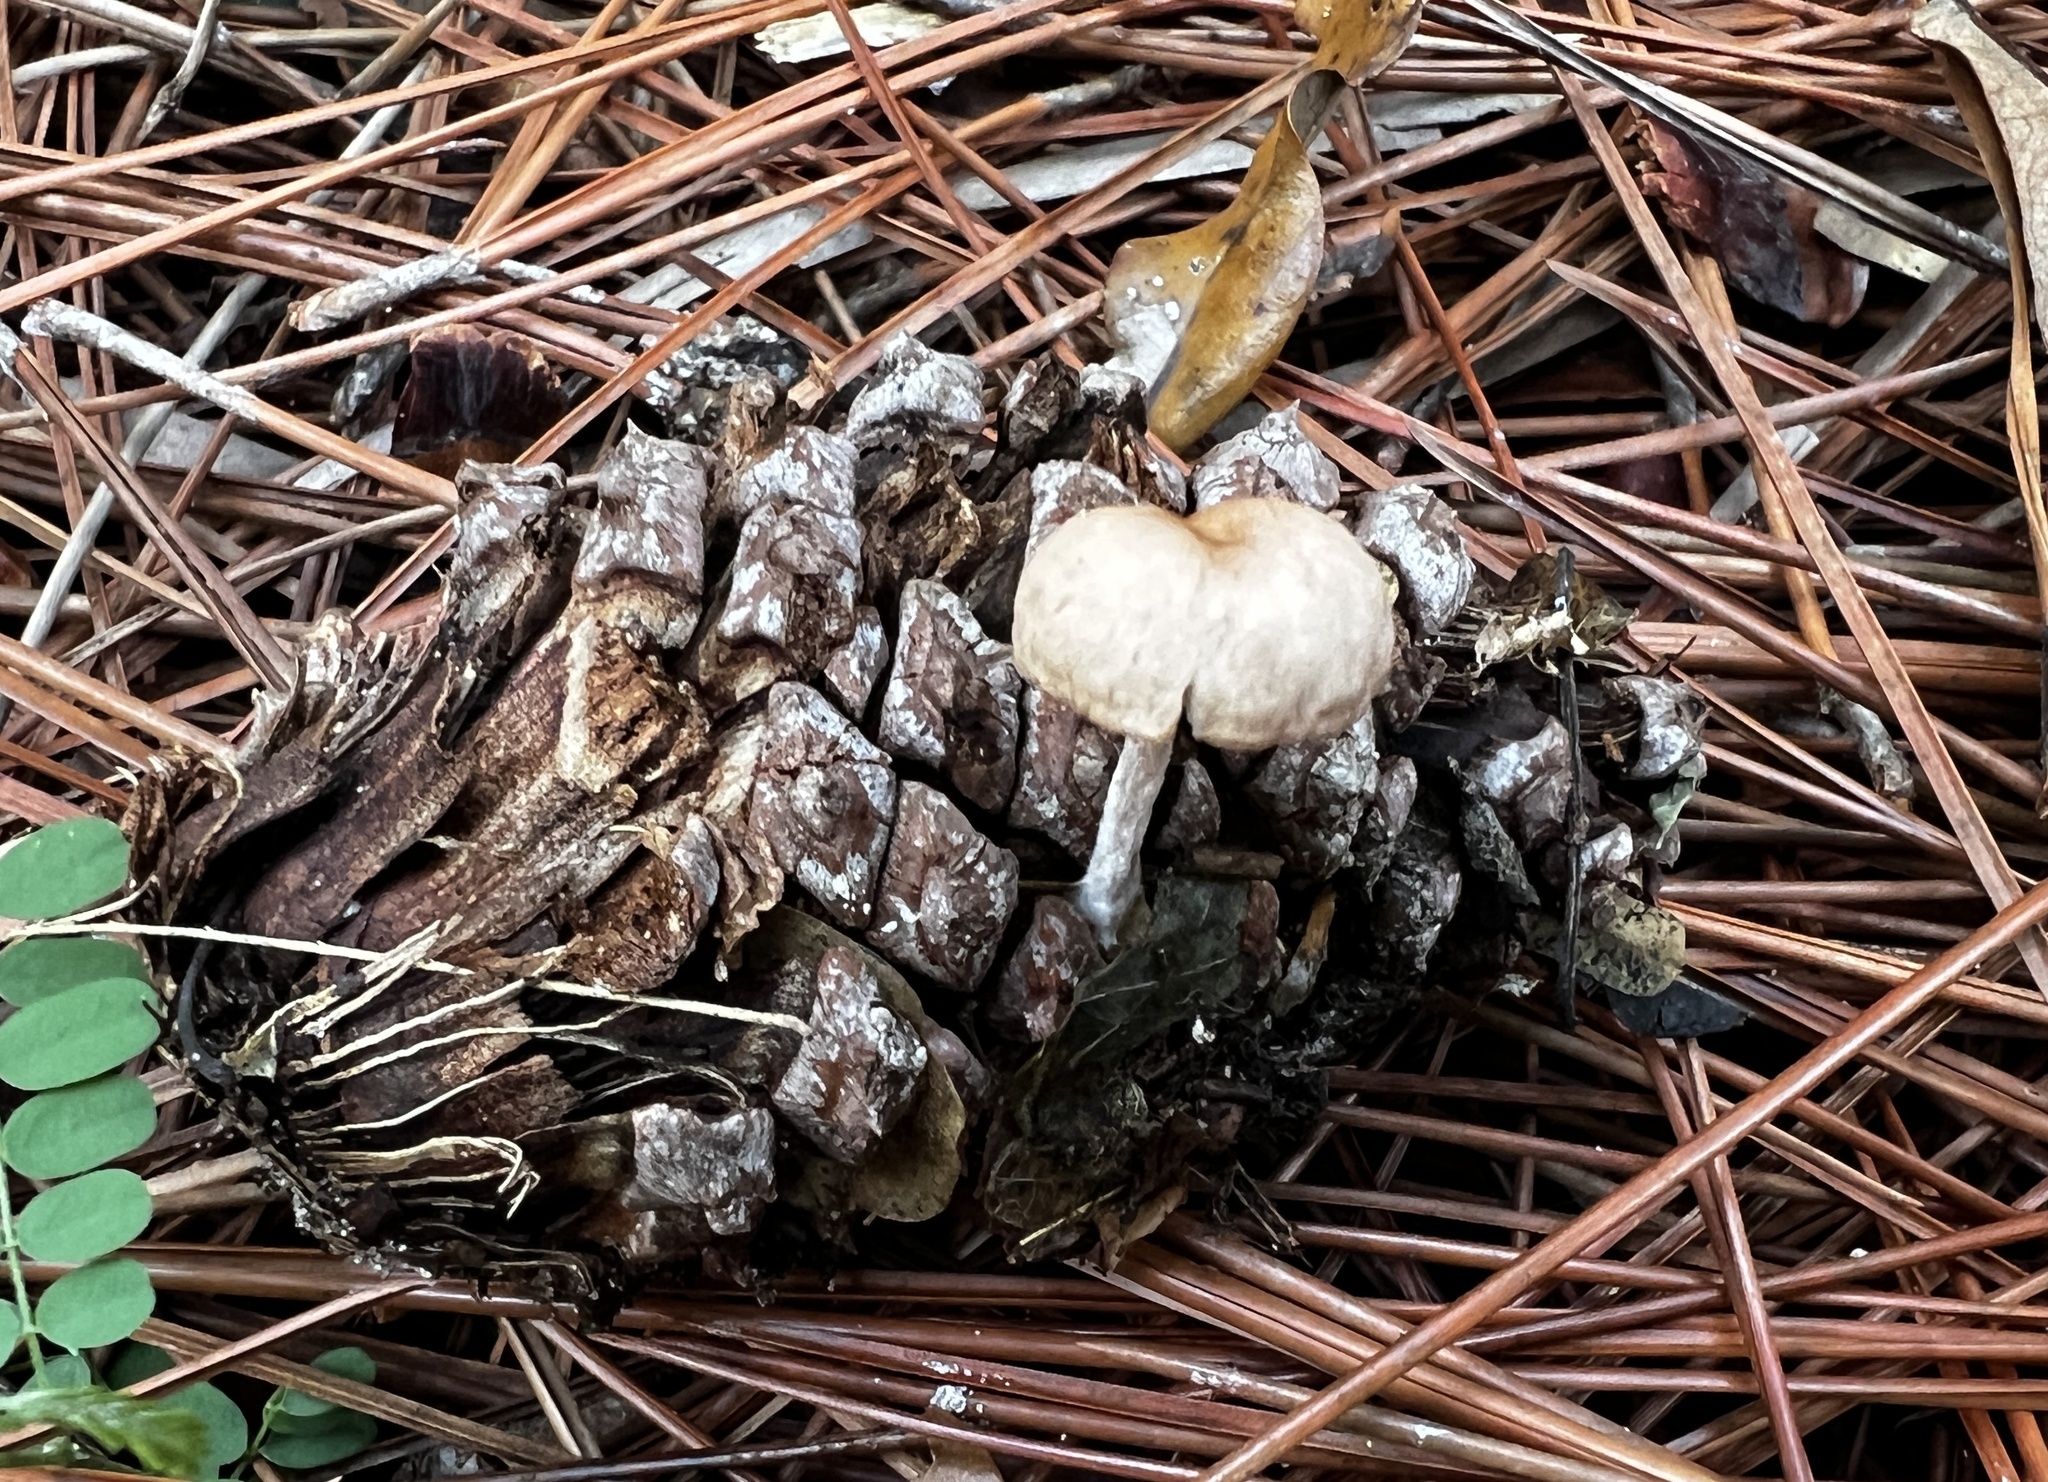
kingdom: Fungi
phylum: Basidiomycota
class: Agaricomycetes
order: Agaricales
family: Marasmiaceae
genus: Baeospora
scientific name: Baeospora myosura
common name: Conifercone cap
